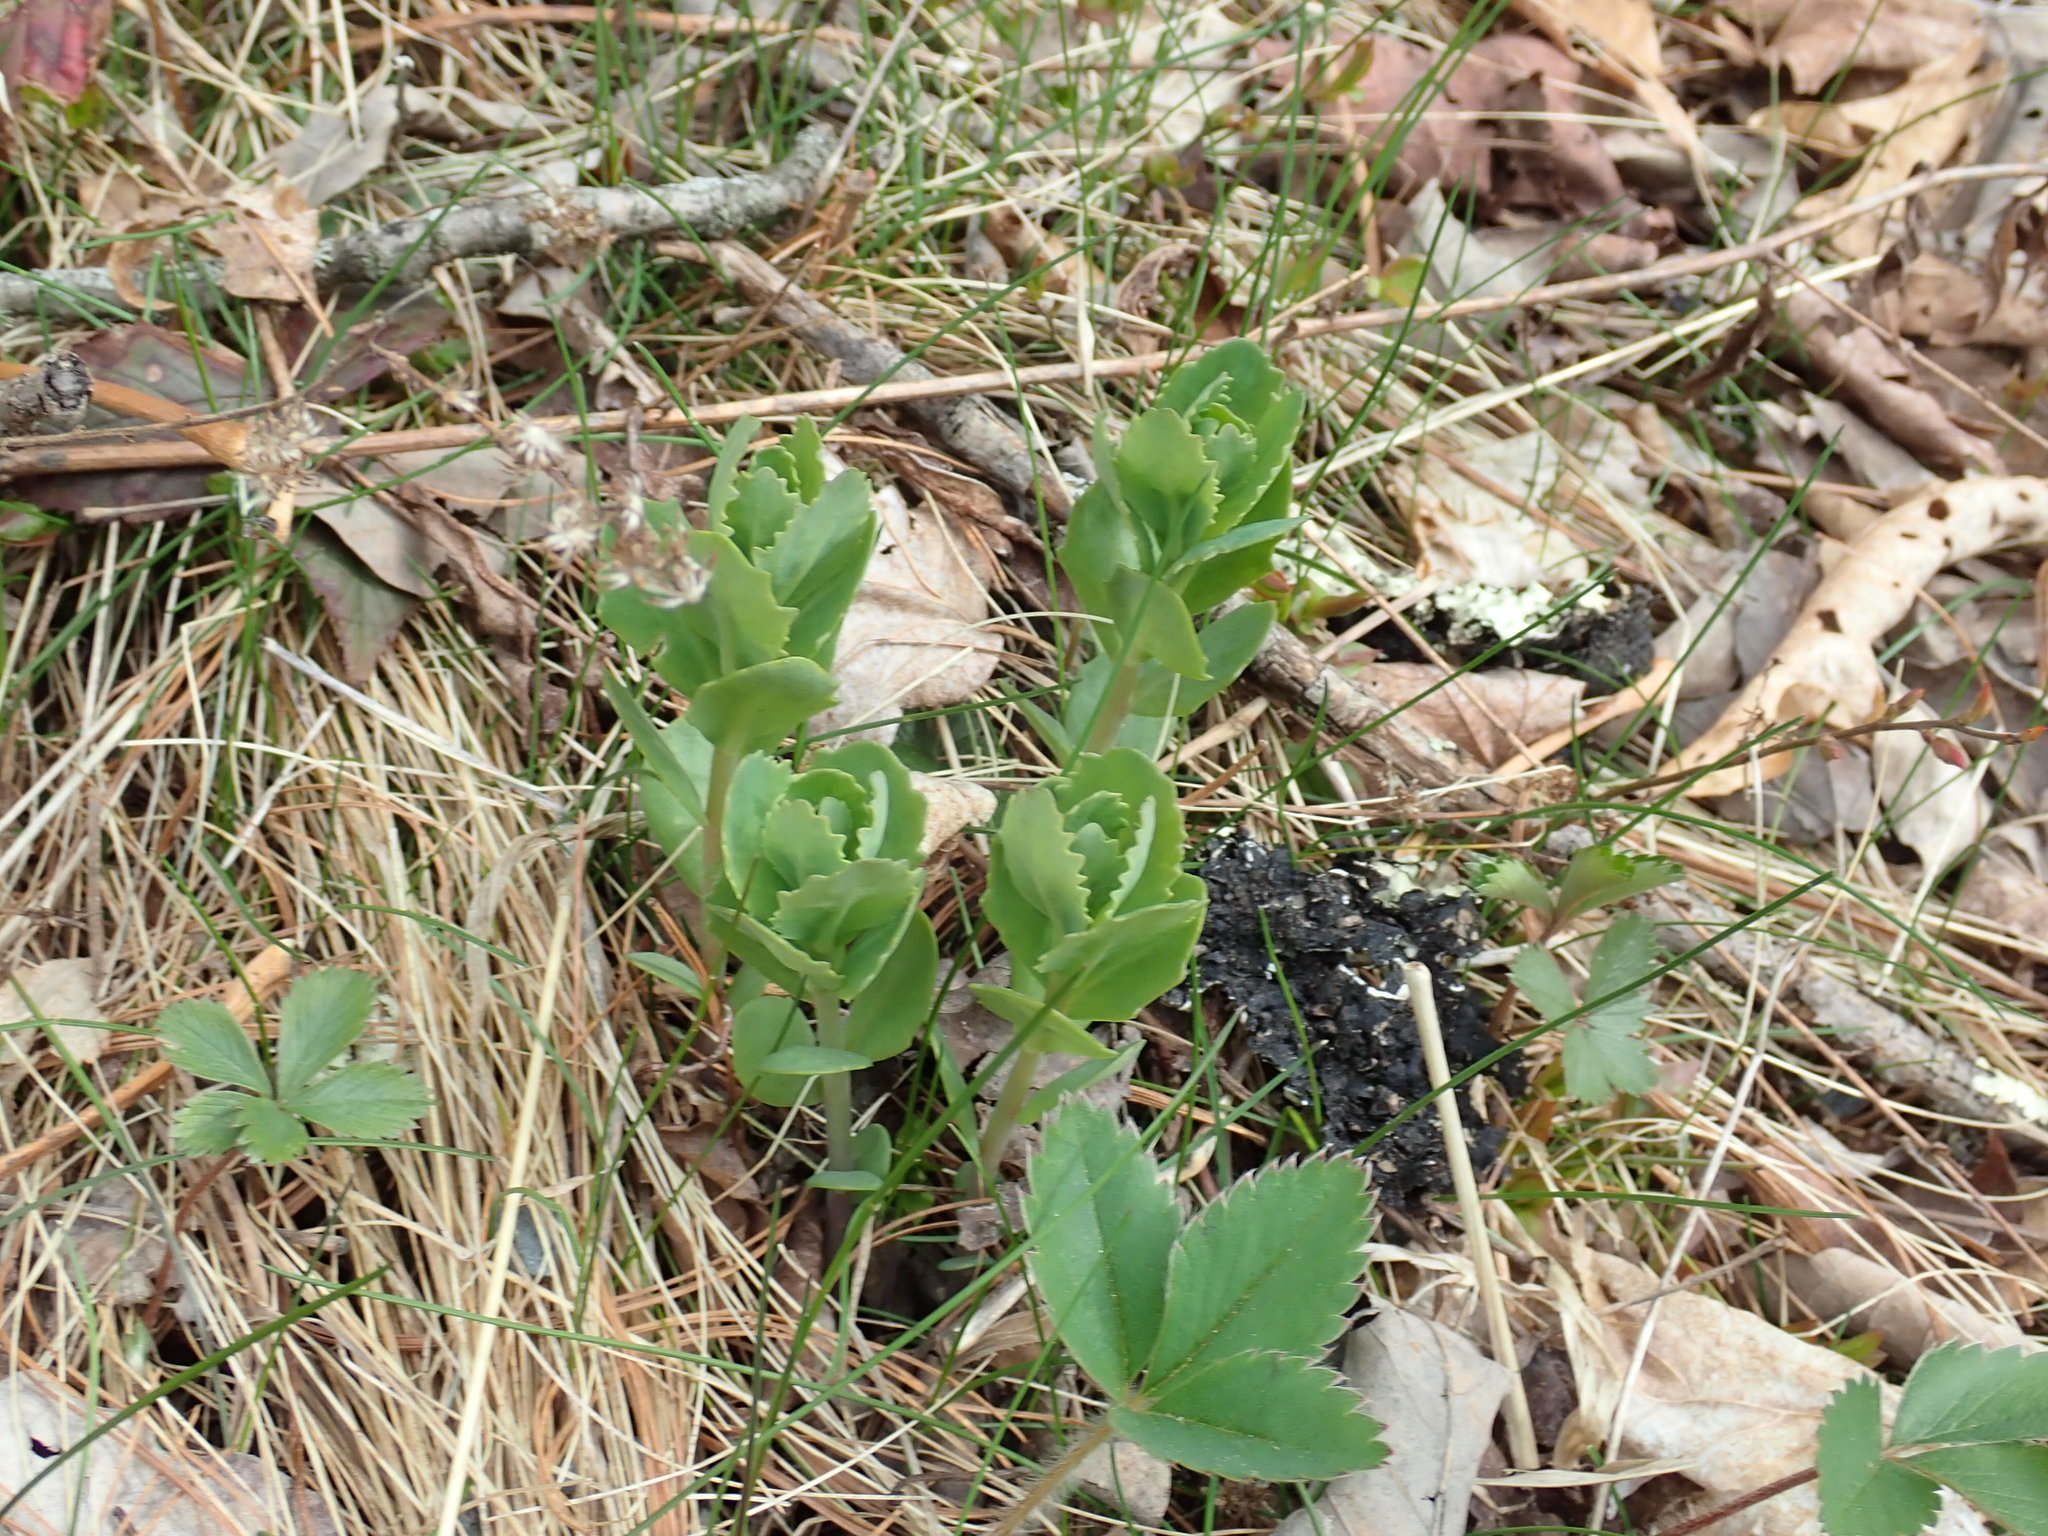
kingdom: Plantae
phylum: Tracheophyta
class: Magnoliopsida
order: Saxifragales
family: Crassulaceae
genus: Hylotelephium
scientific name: Hylotelephium telephium
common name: Live-forever
